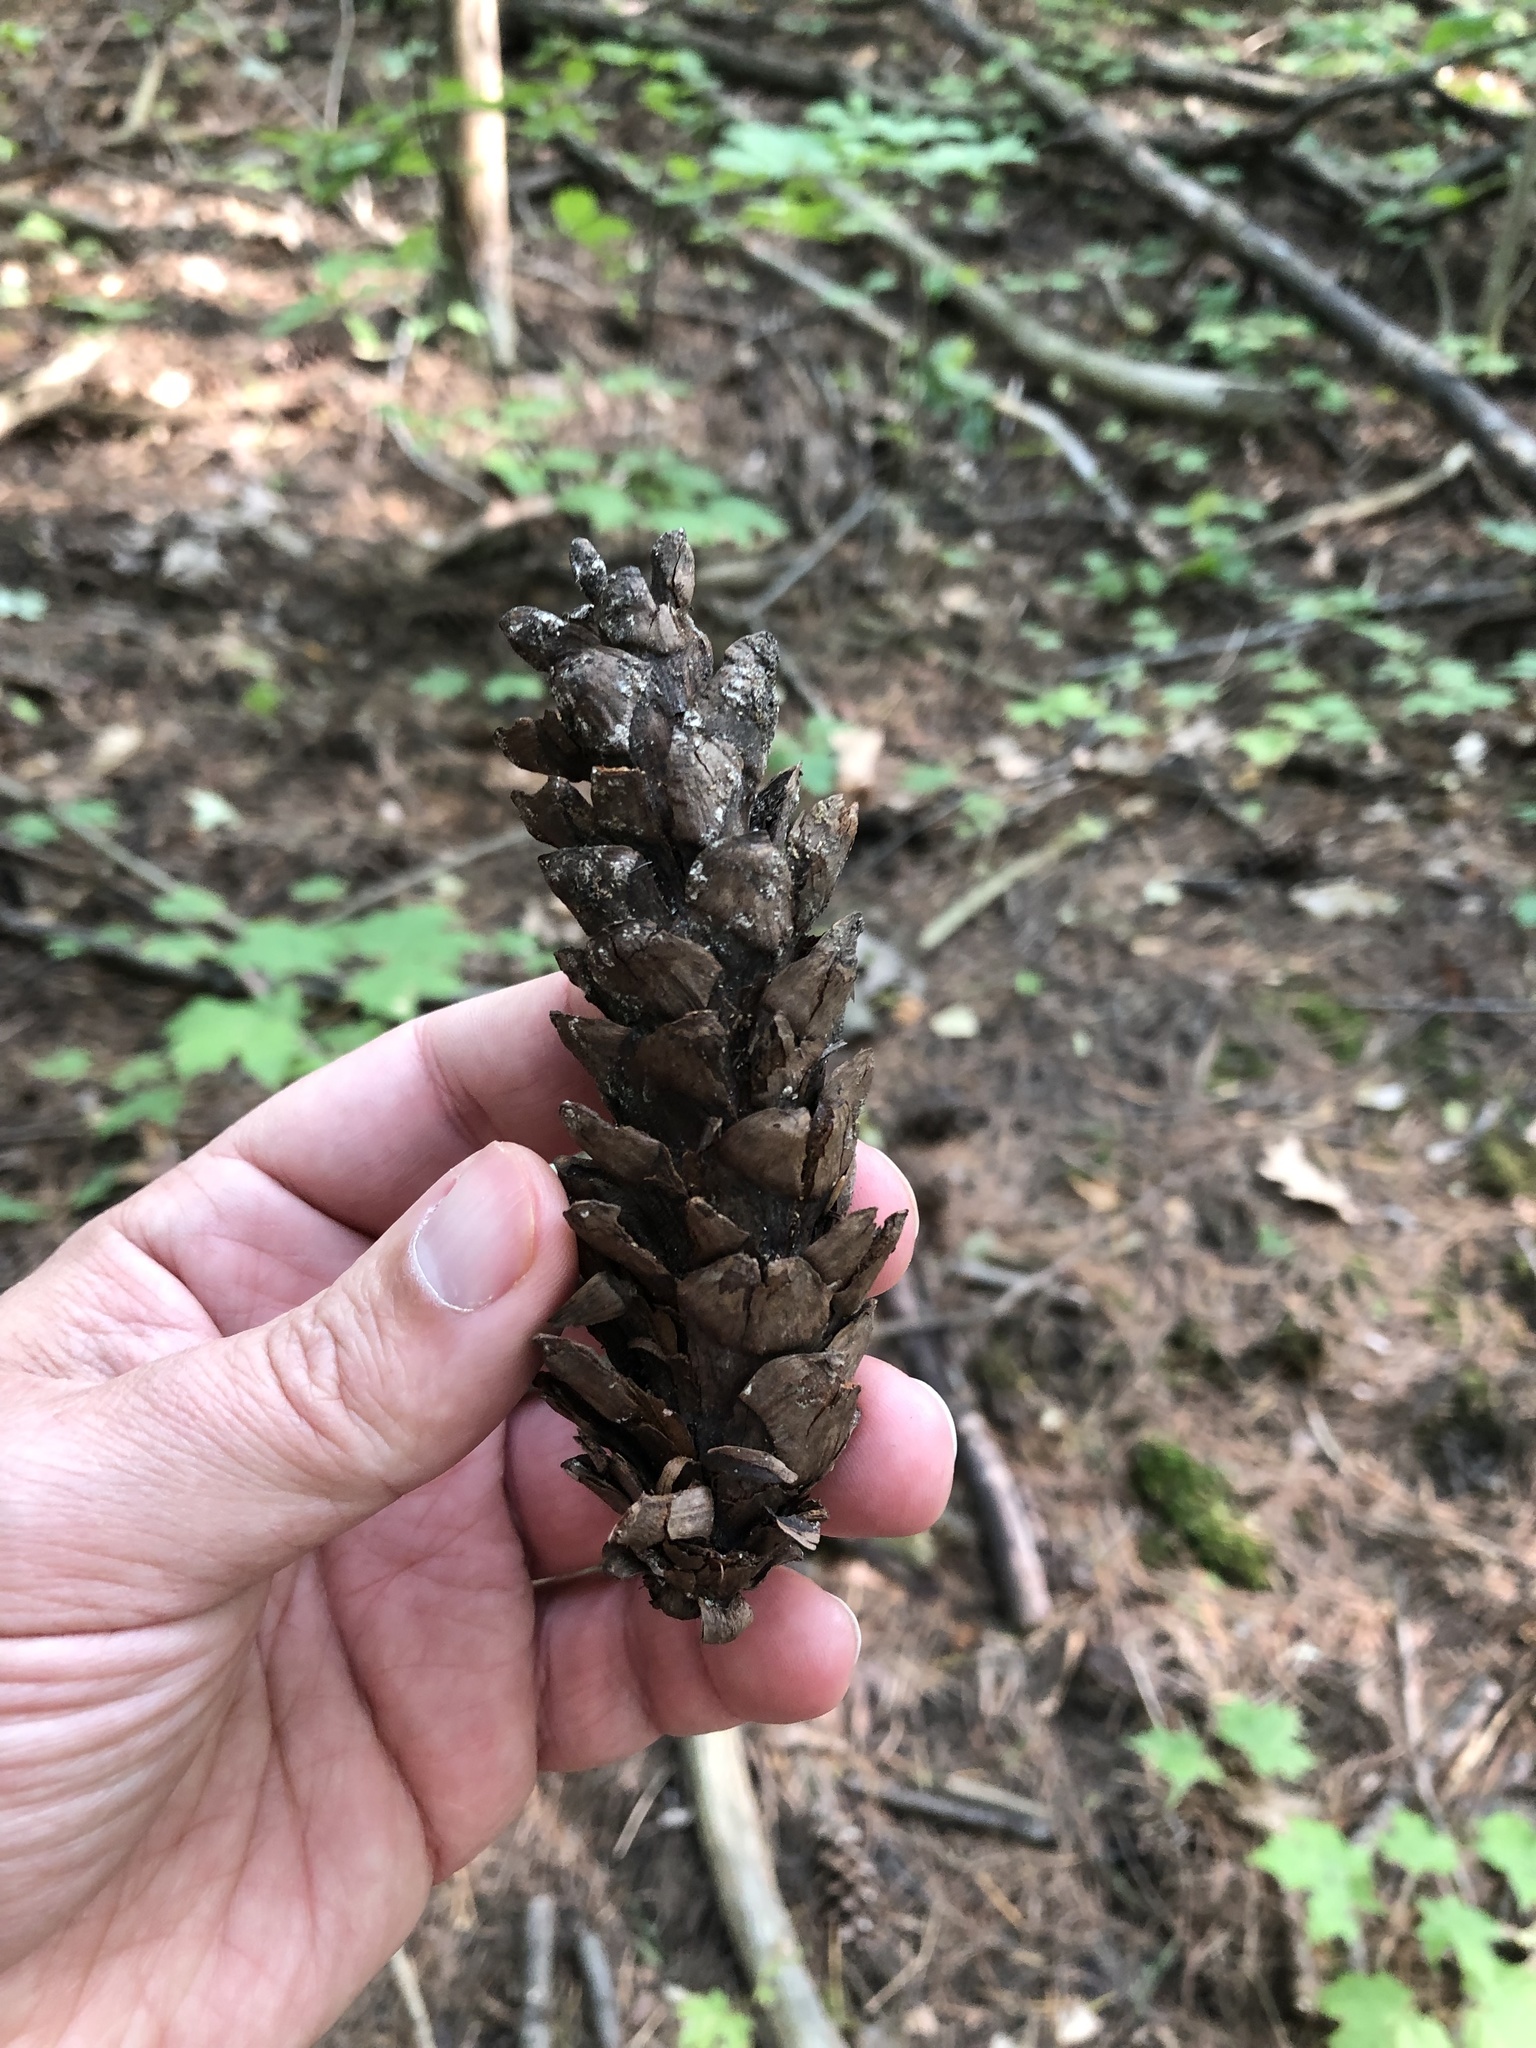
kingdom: Plantae
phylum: Tracheophyta
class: Pinopsida
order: Pinales
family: Pinaceae
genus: Pinus
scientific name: Pinus strobus
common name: Weymouth pine
